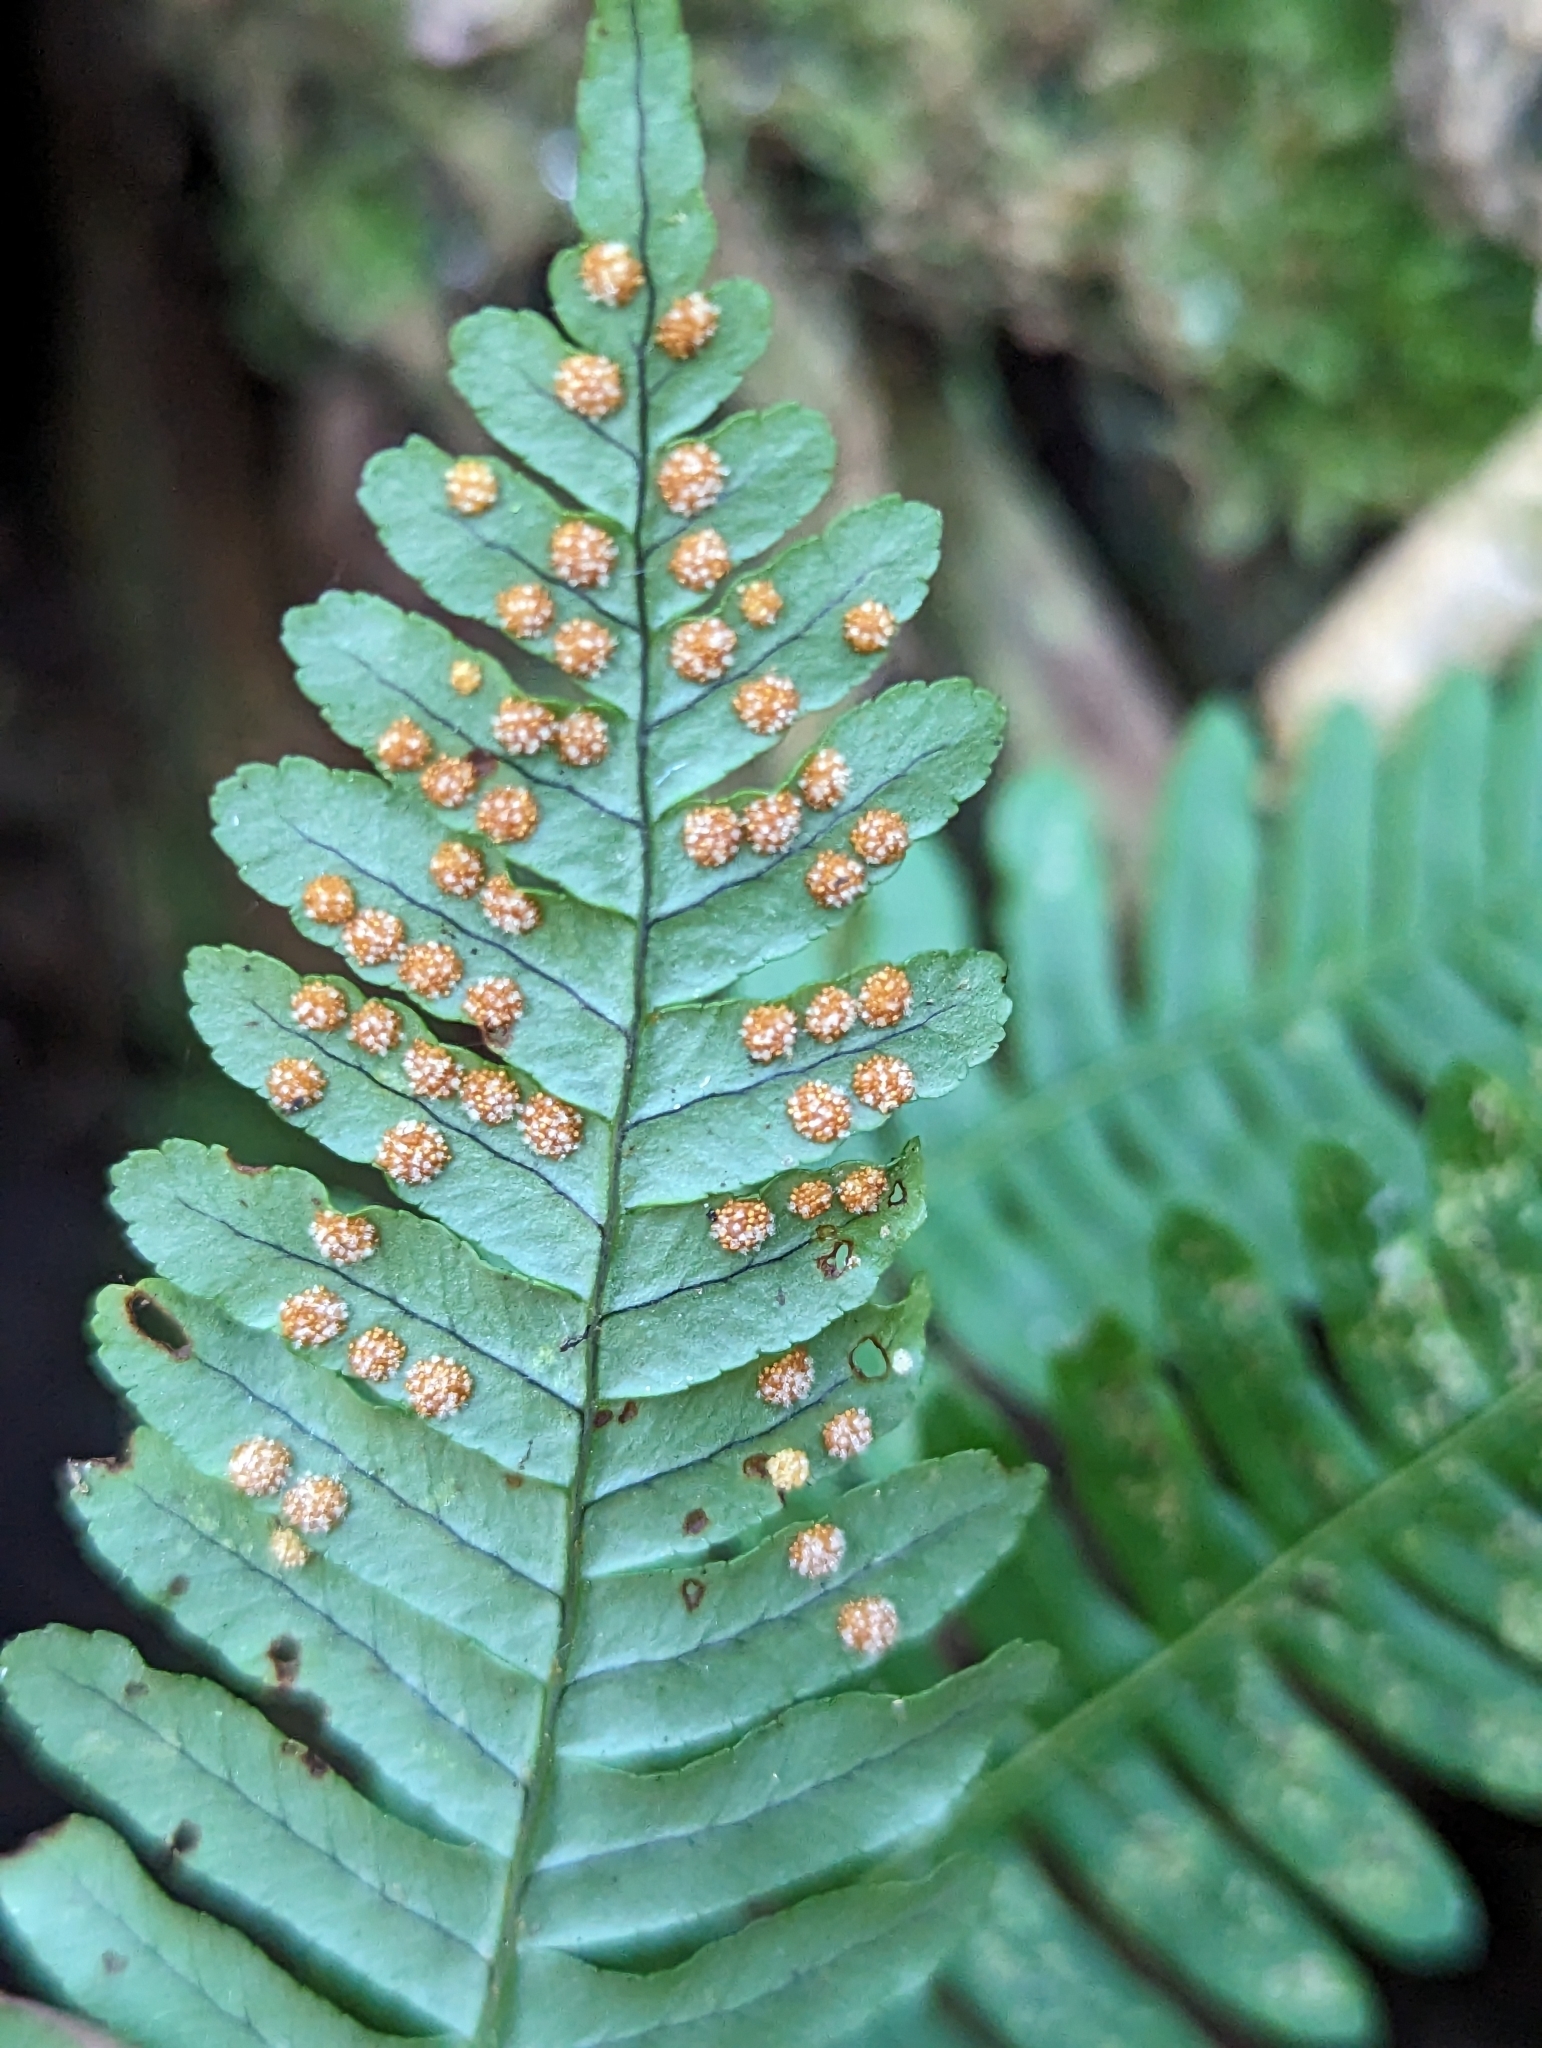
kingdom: Plantae
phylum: Tracheophyta
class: Polypodiopsida
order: Polypodiales
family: Polypodiaceae
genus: Polypodium
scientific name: Polypodium virginianum
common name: American wall fern
